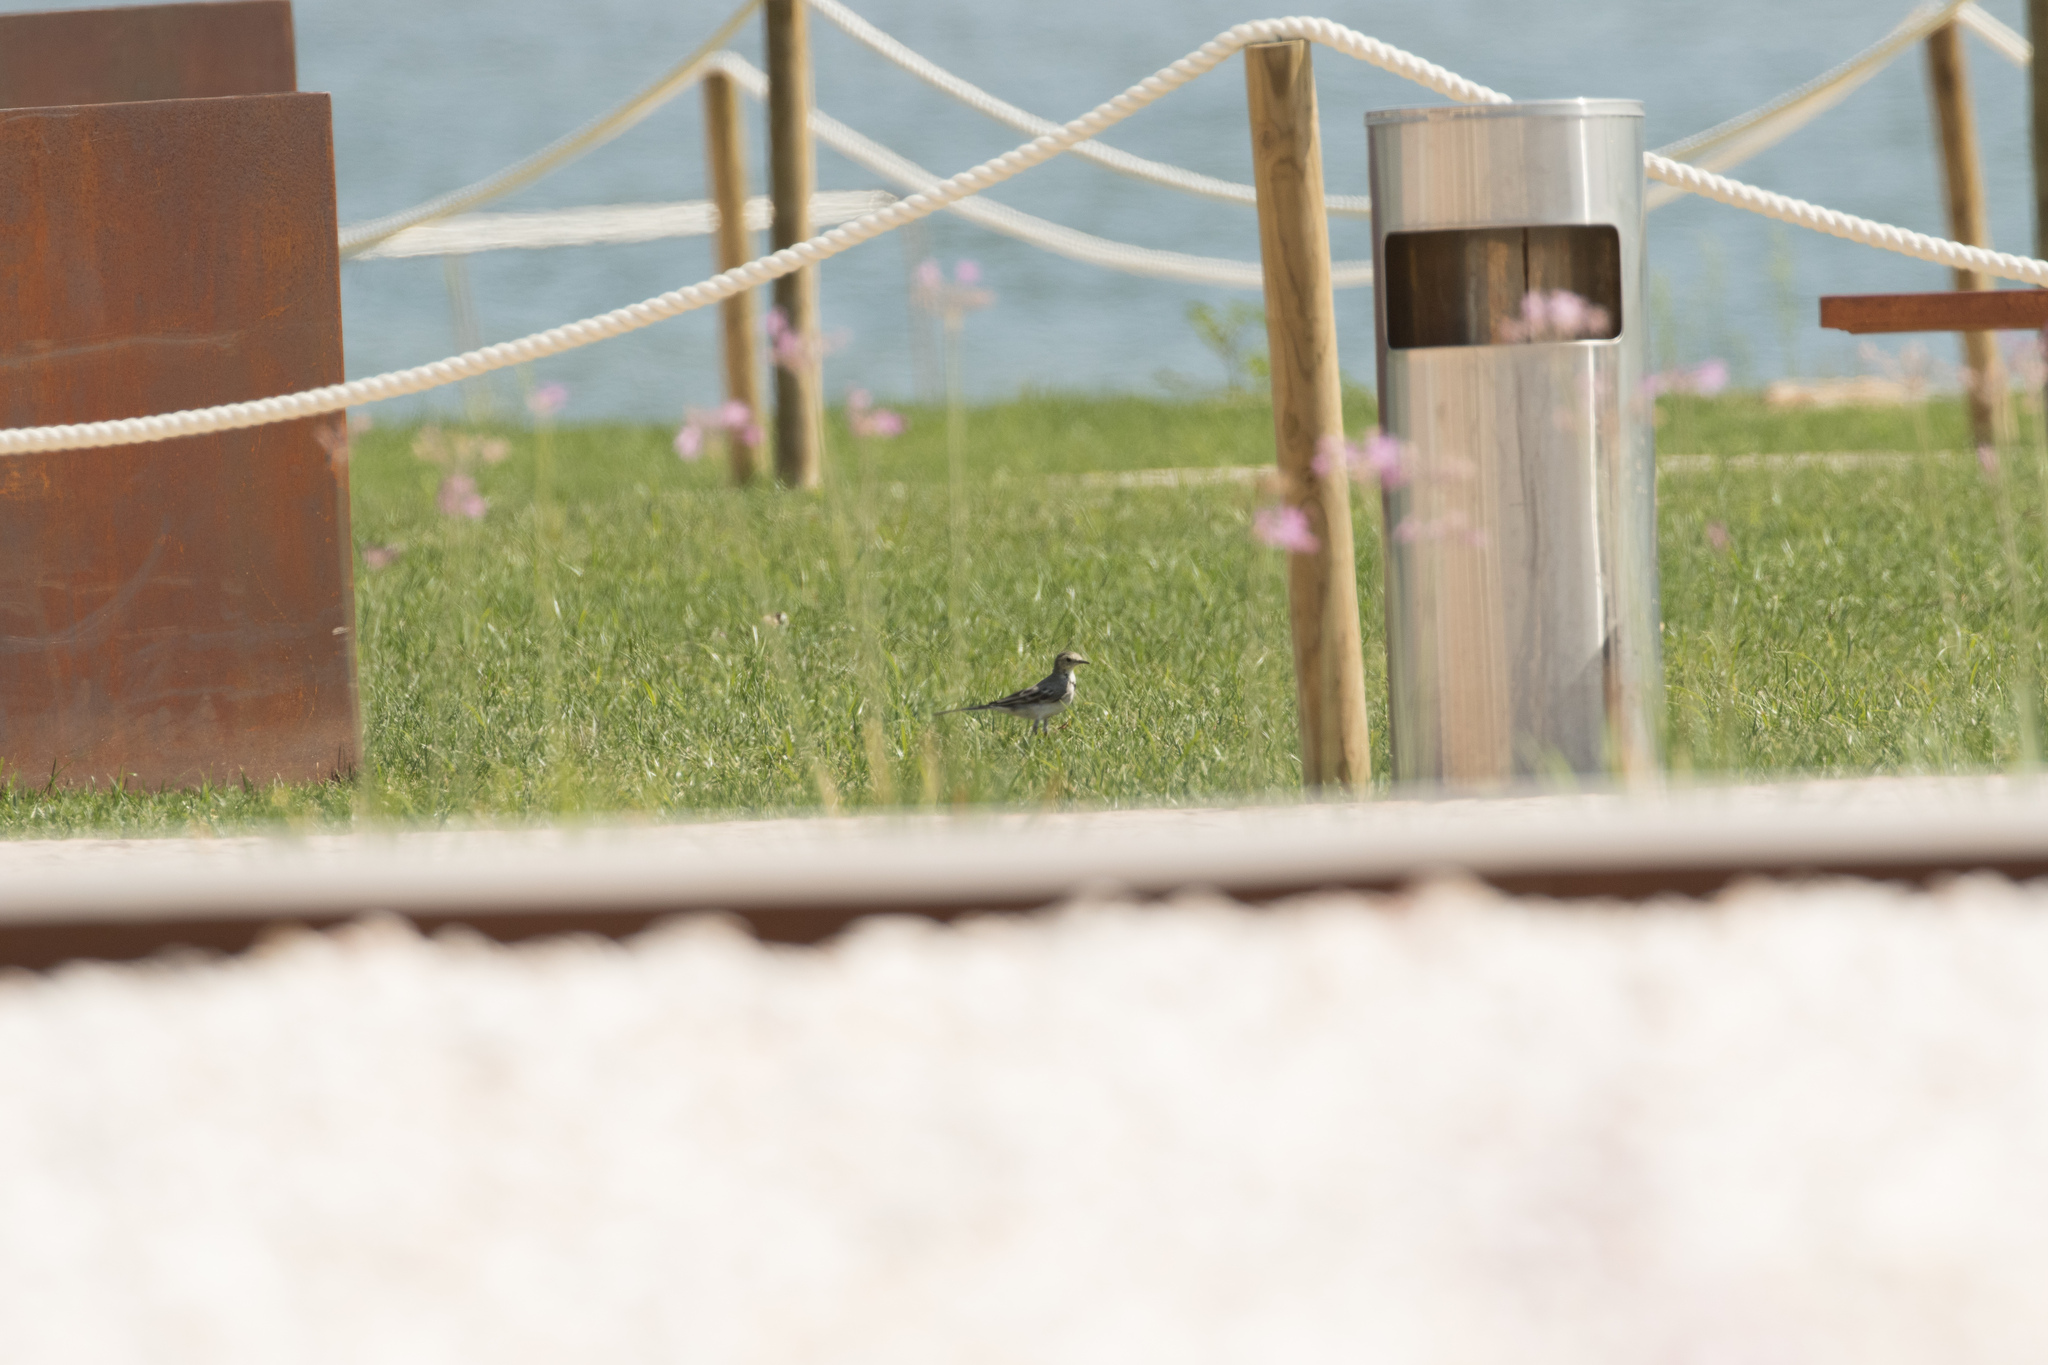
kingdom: Animalia
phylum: Chordata
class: Aves
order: Passeriformes
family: Motacillidae
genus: Motacilla
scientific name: Motacilla alba
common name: White wagtail
